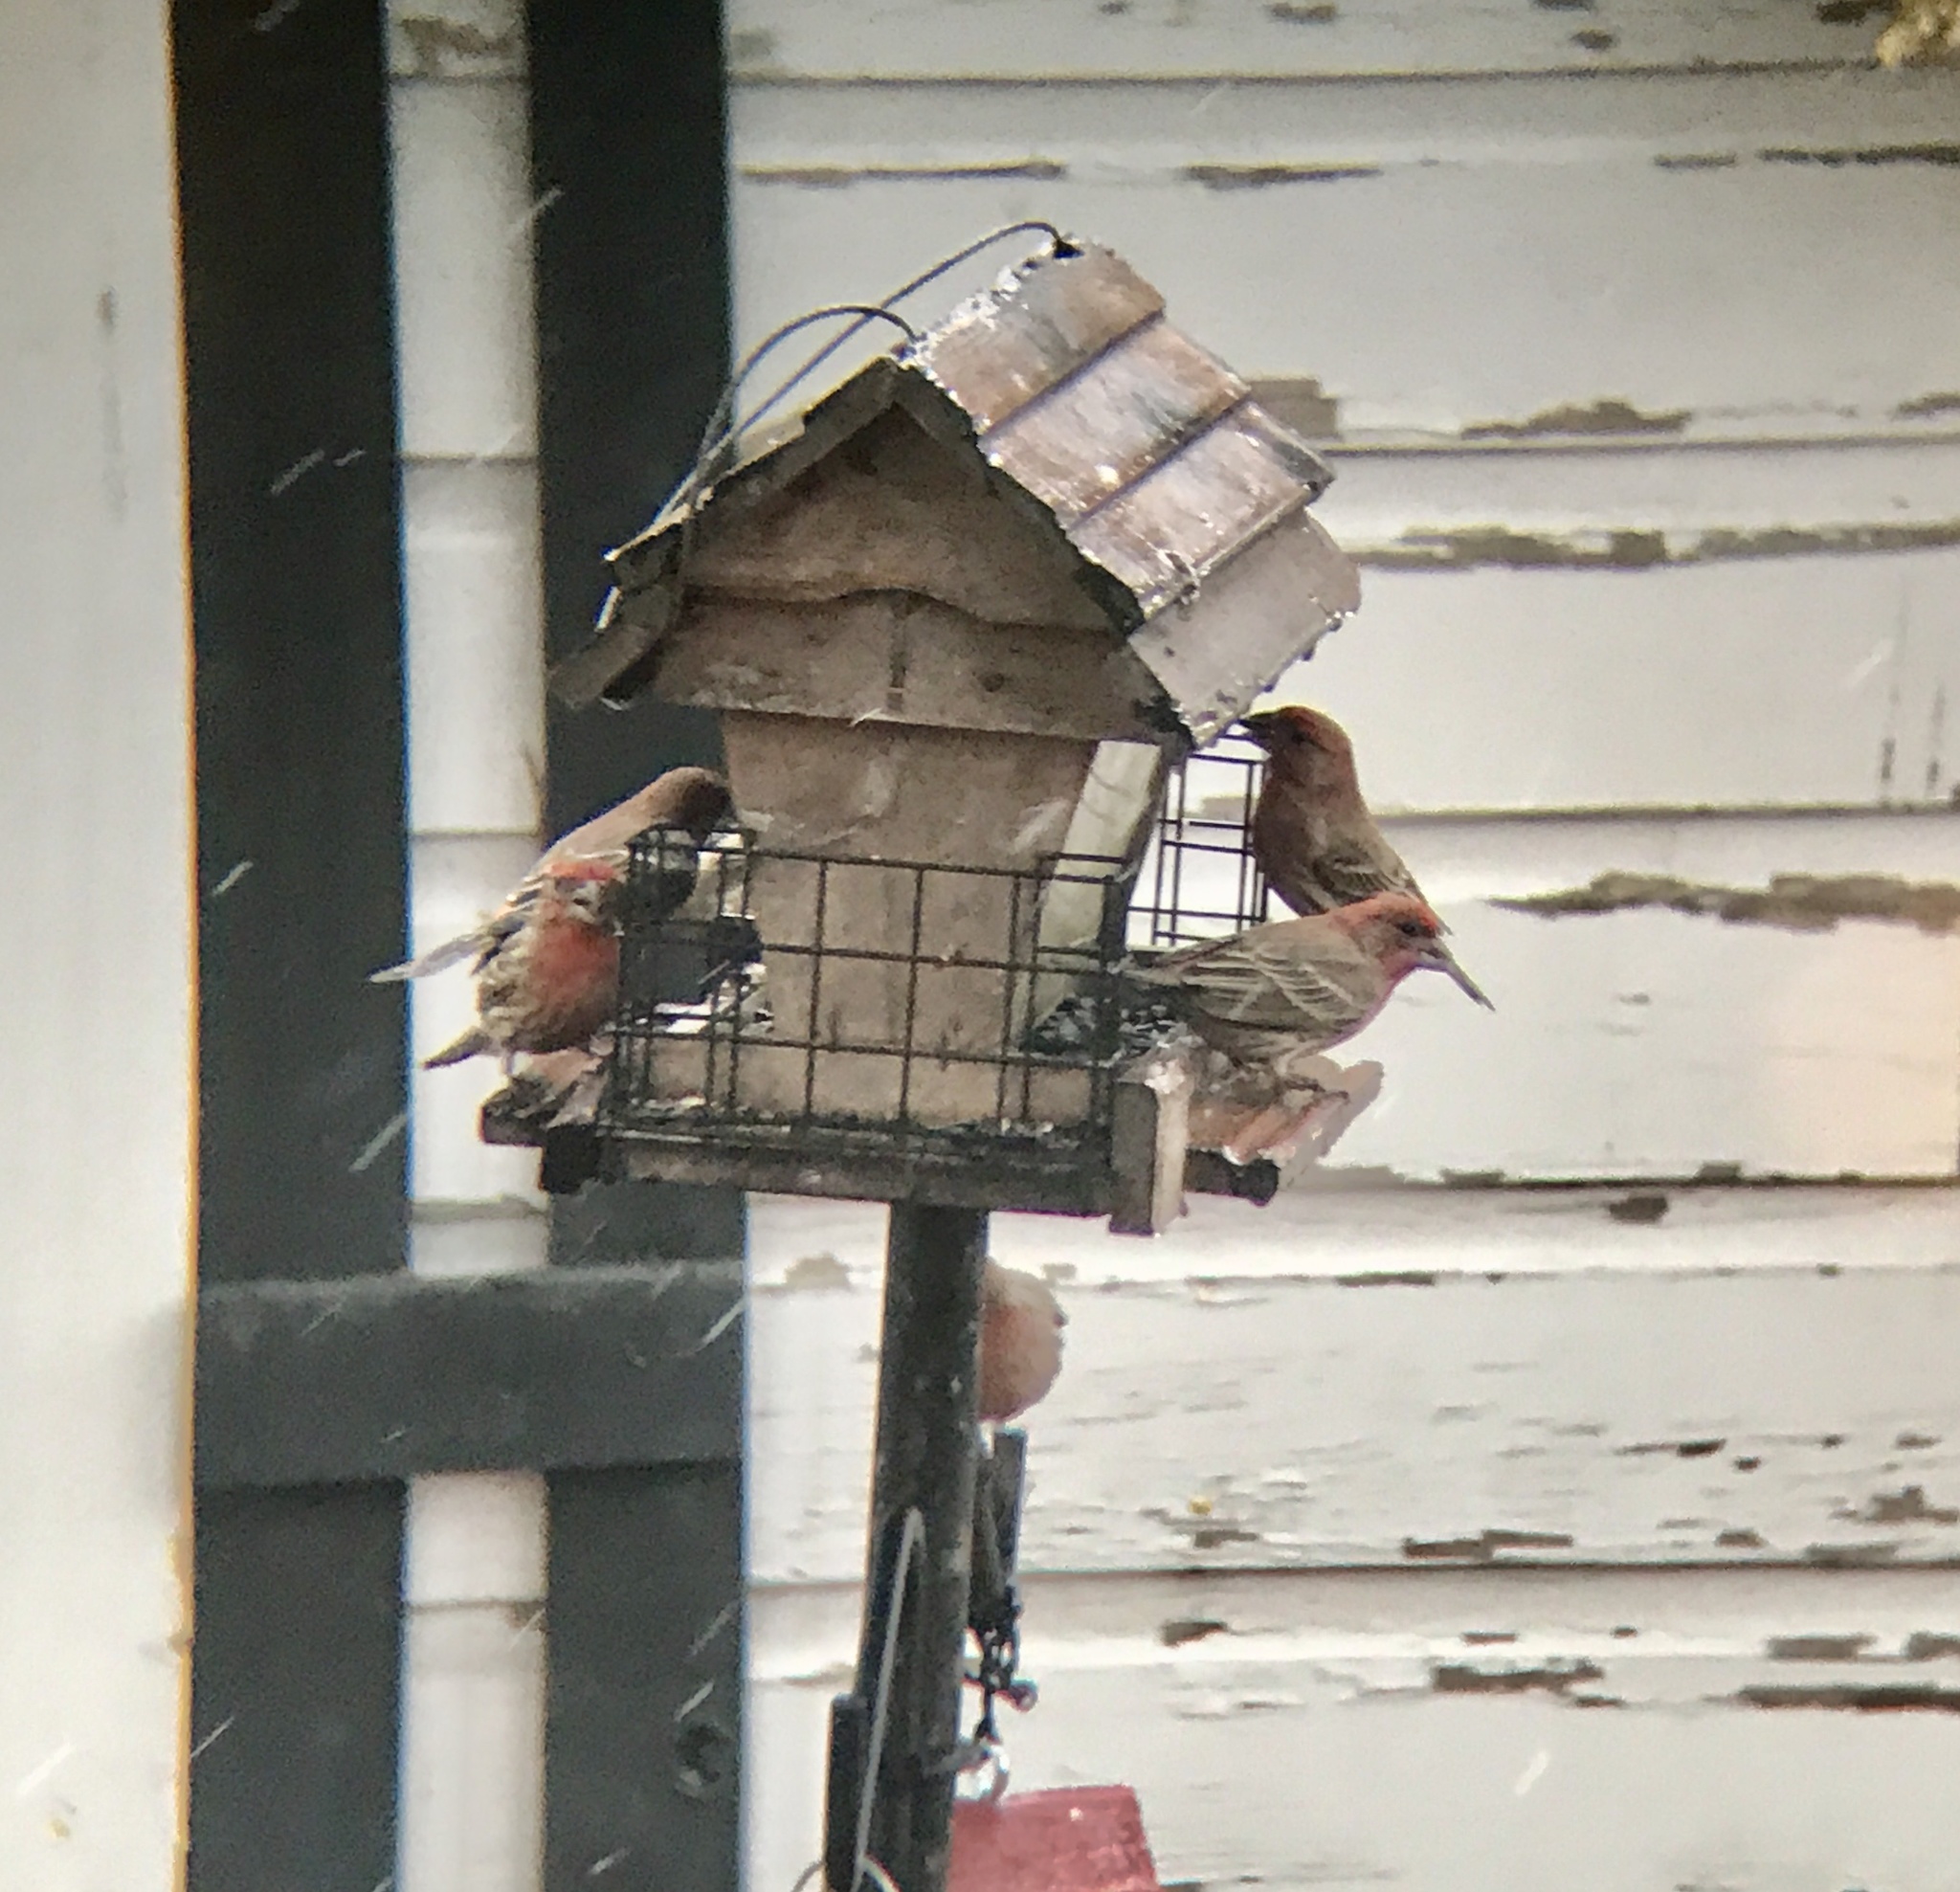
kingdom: Animalia
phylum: Chordata
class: Aves
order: Passeriformes
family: Fringillidae
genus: Haemorhous
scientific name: Haemorhous mexicanus
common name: House finch
